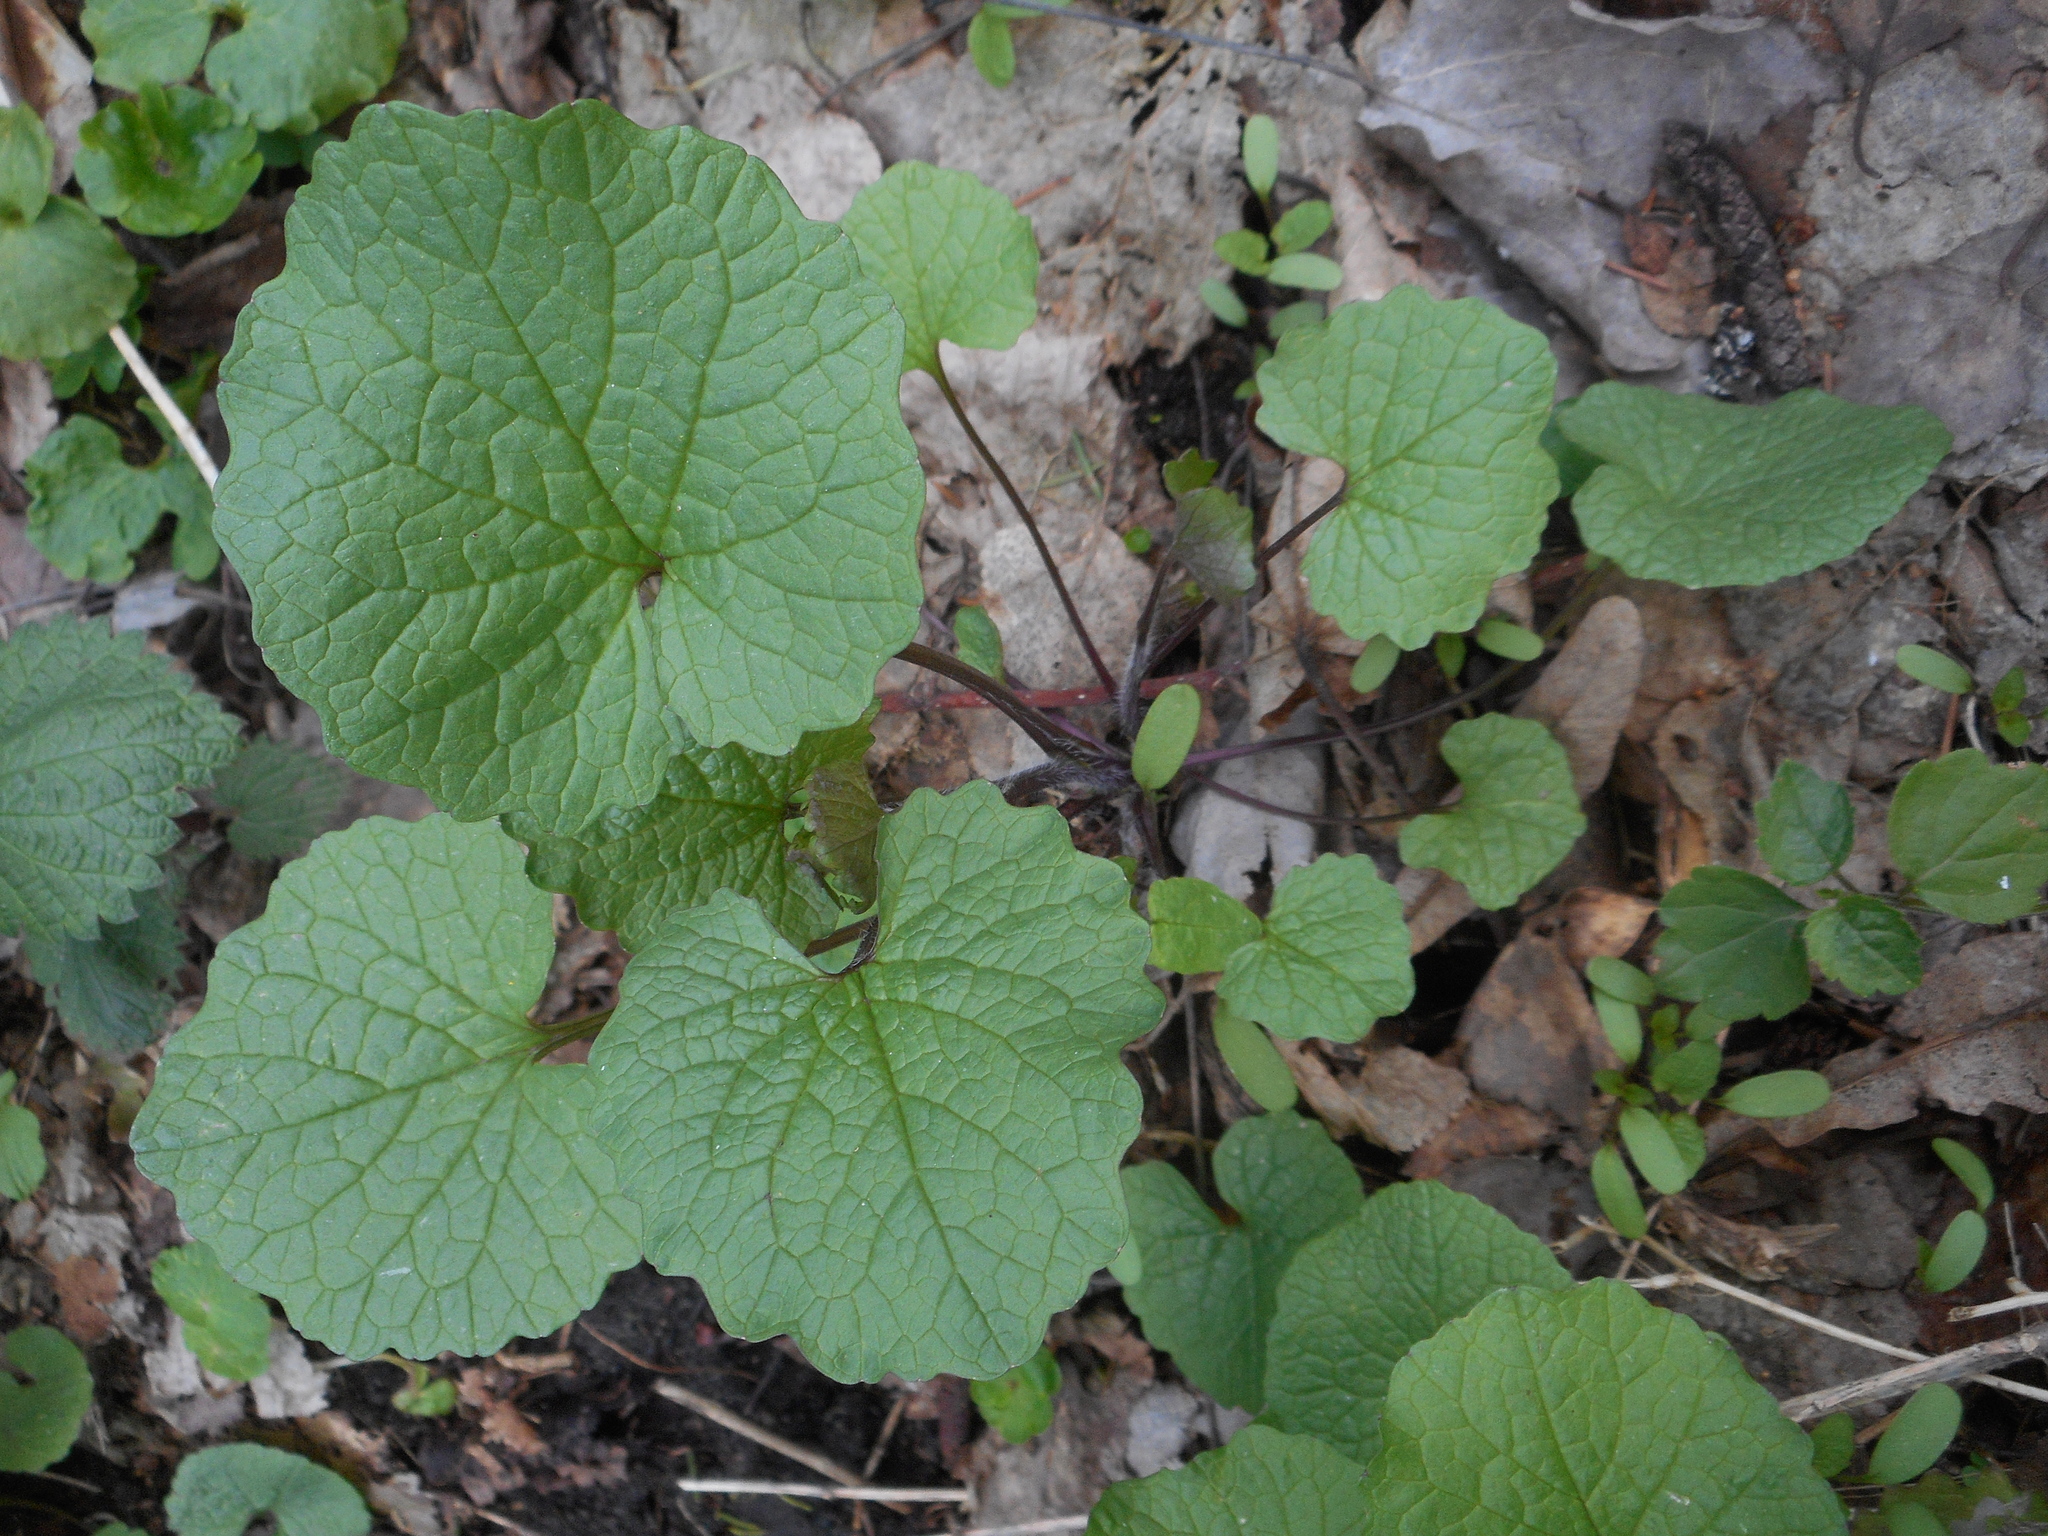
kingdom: Plantae
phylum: Tracheophyta
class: Magnoliopsida
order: Brassicales
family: Brassicaceae
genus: Alliaria
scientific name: Alliaria petiolata
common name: Garlic mustard
